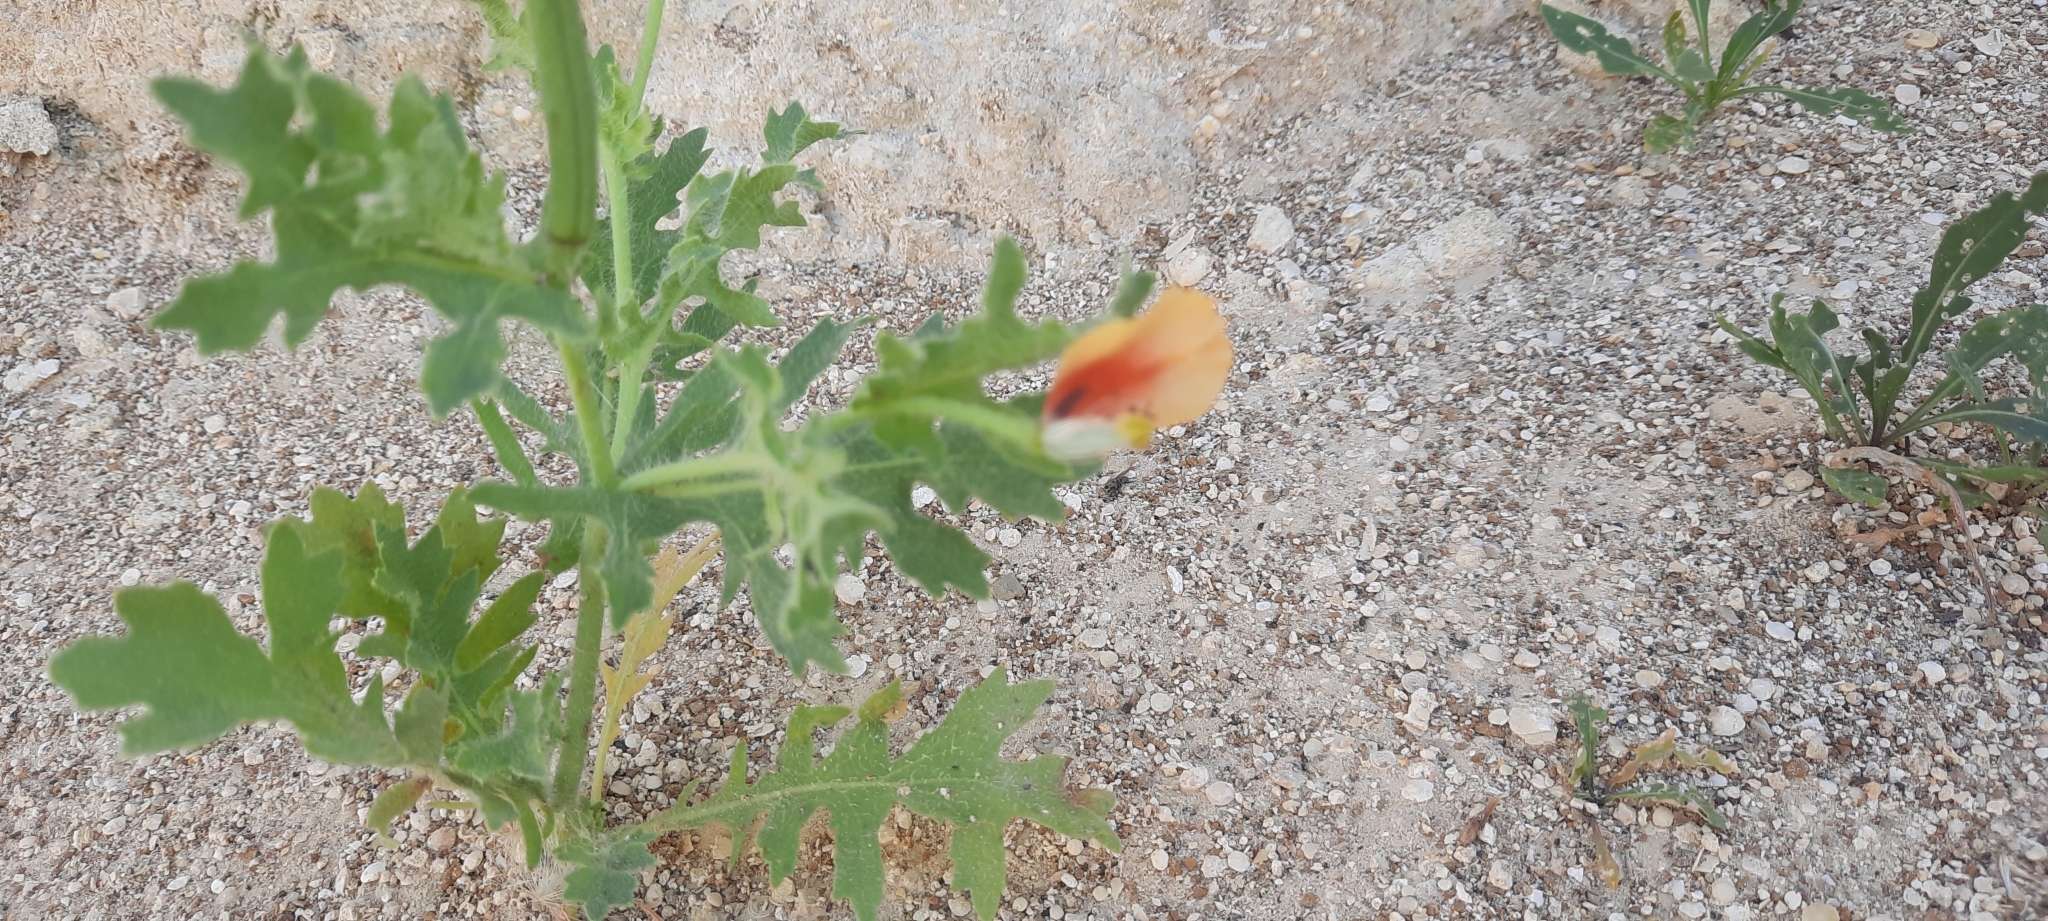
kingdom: Plantae
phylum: Tracheophyta
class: Magnoliopsida
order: Ranunculales
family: Papaveraceae
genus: Glaucium
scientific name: Glaucium corniculatum
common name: Red horned-poppy
